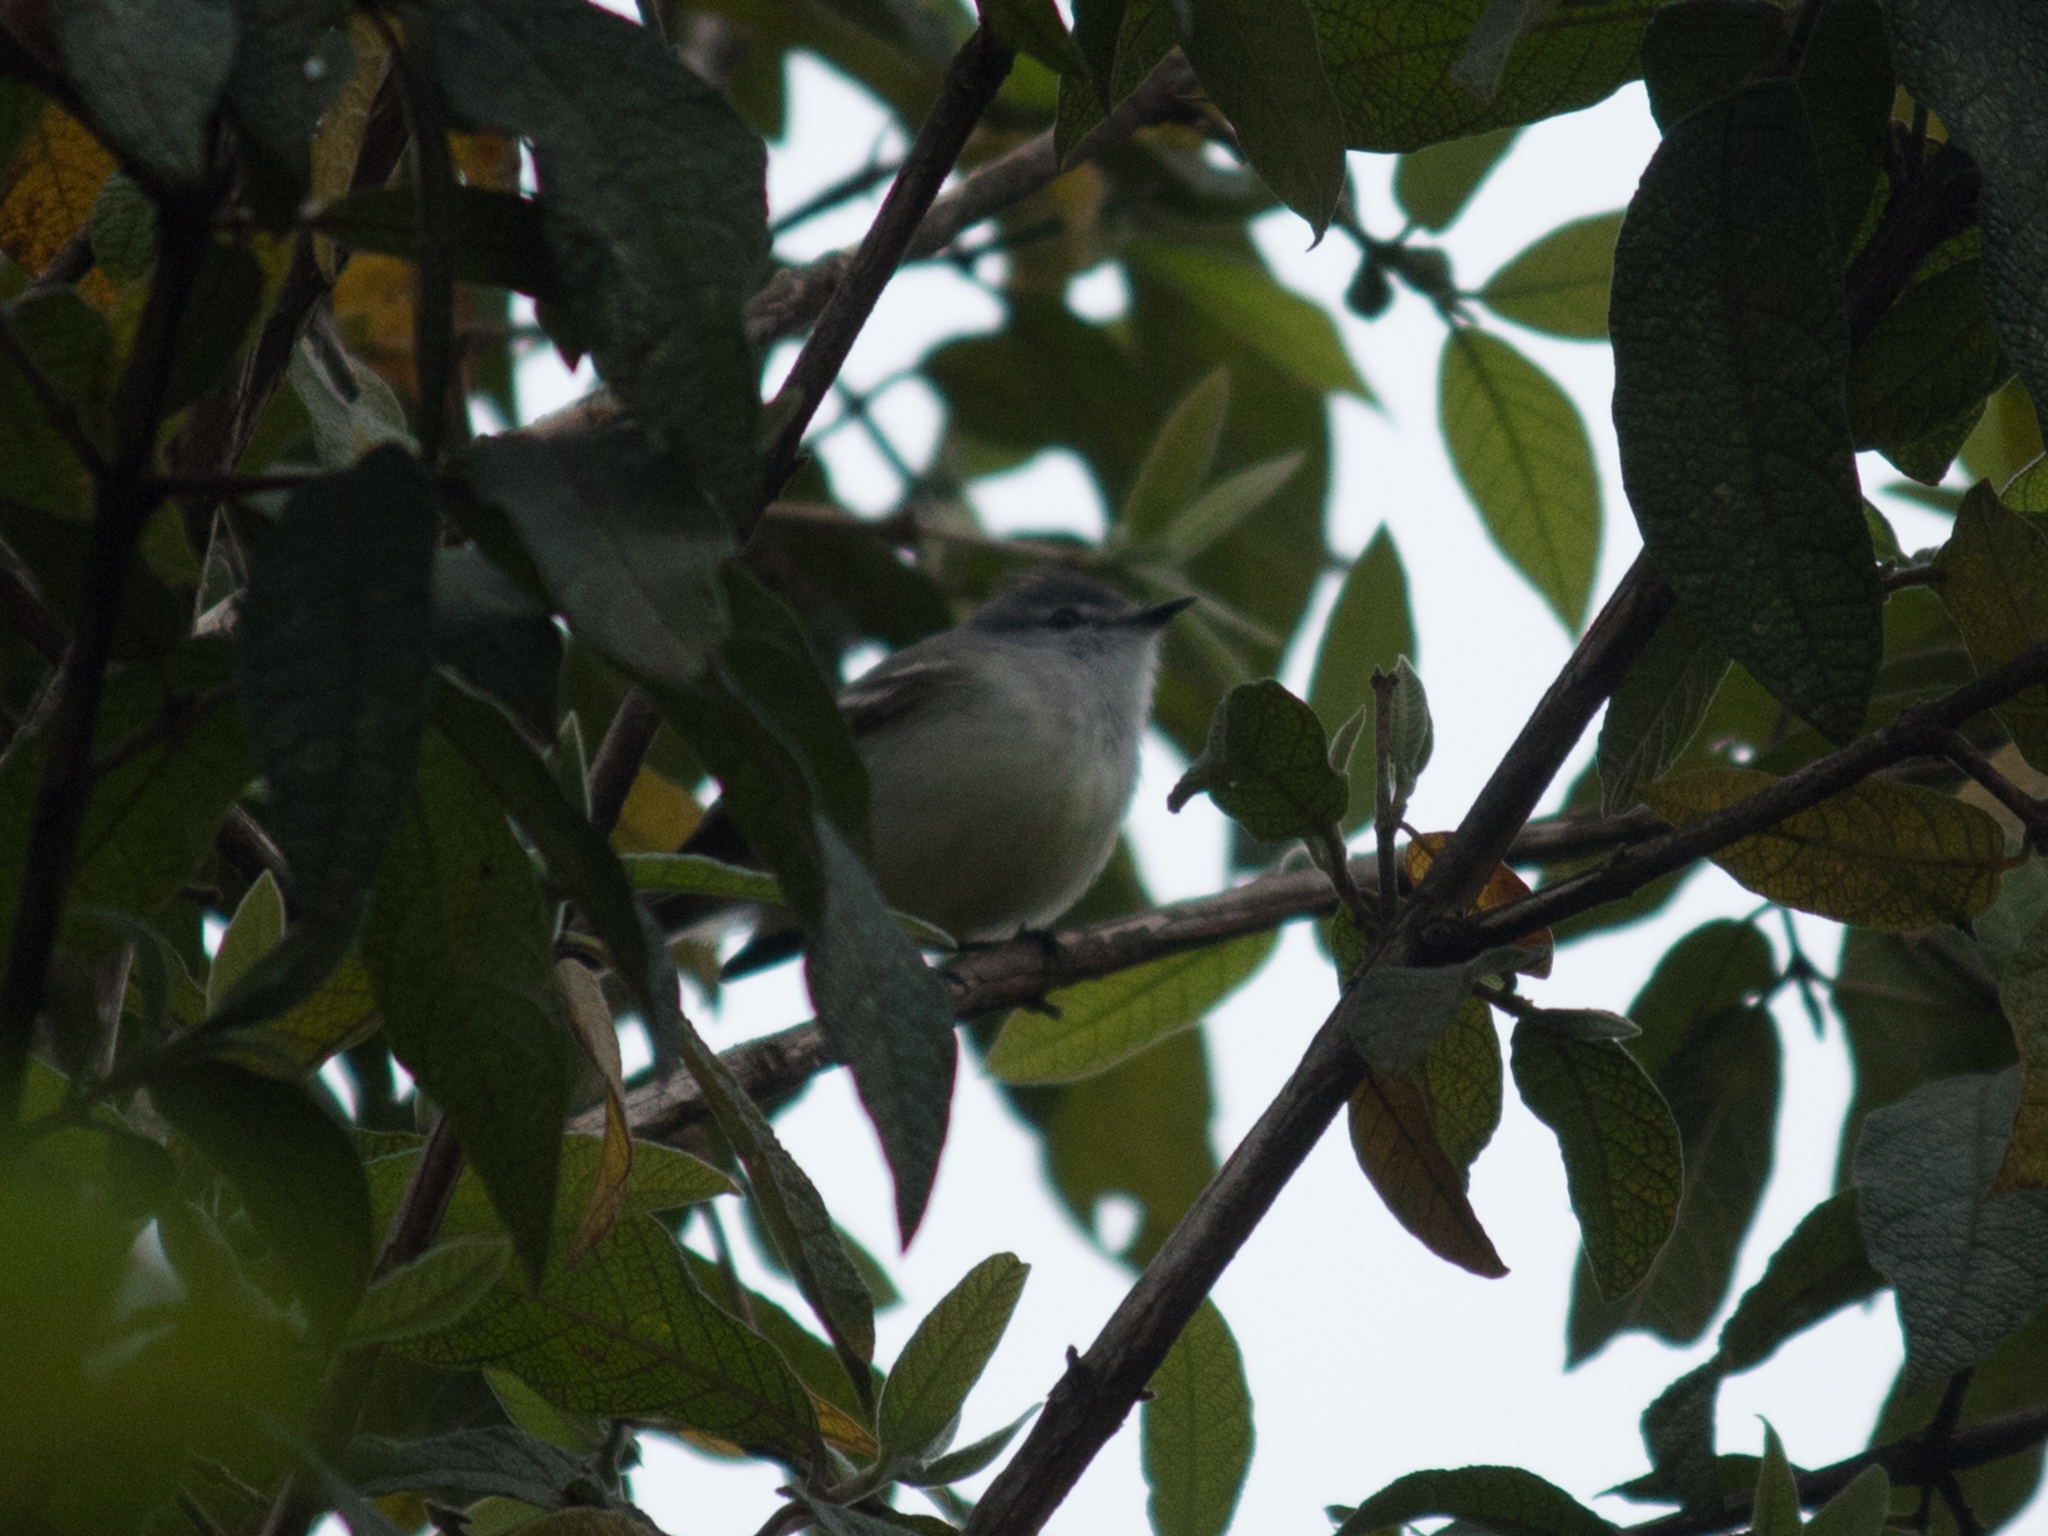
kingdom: Animalia
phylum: Chordata
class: Aves
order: Passeriformes
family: Tyrannidae
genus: Serpophaga
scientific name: Serpophaga subcristata
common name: White-crested tyrannulet
